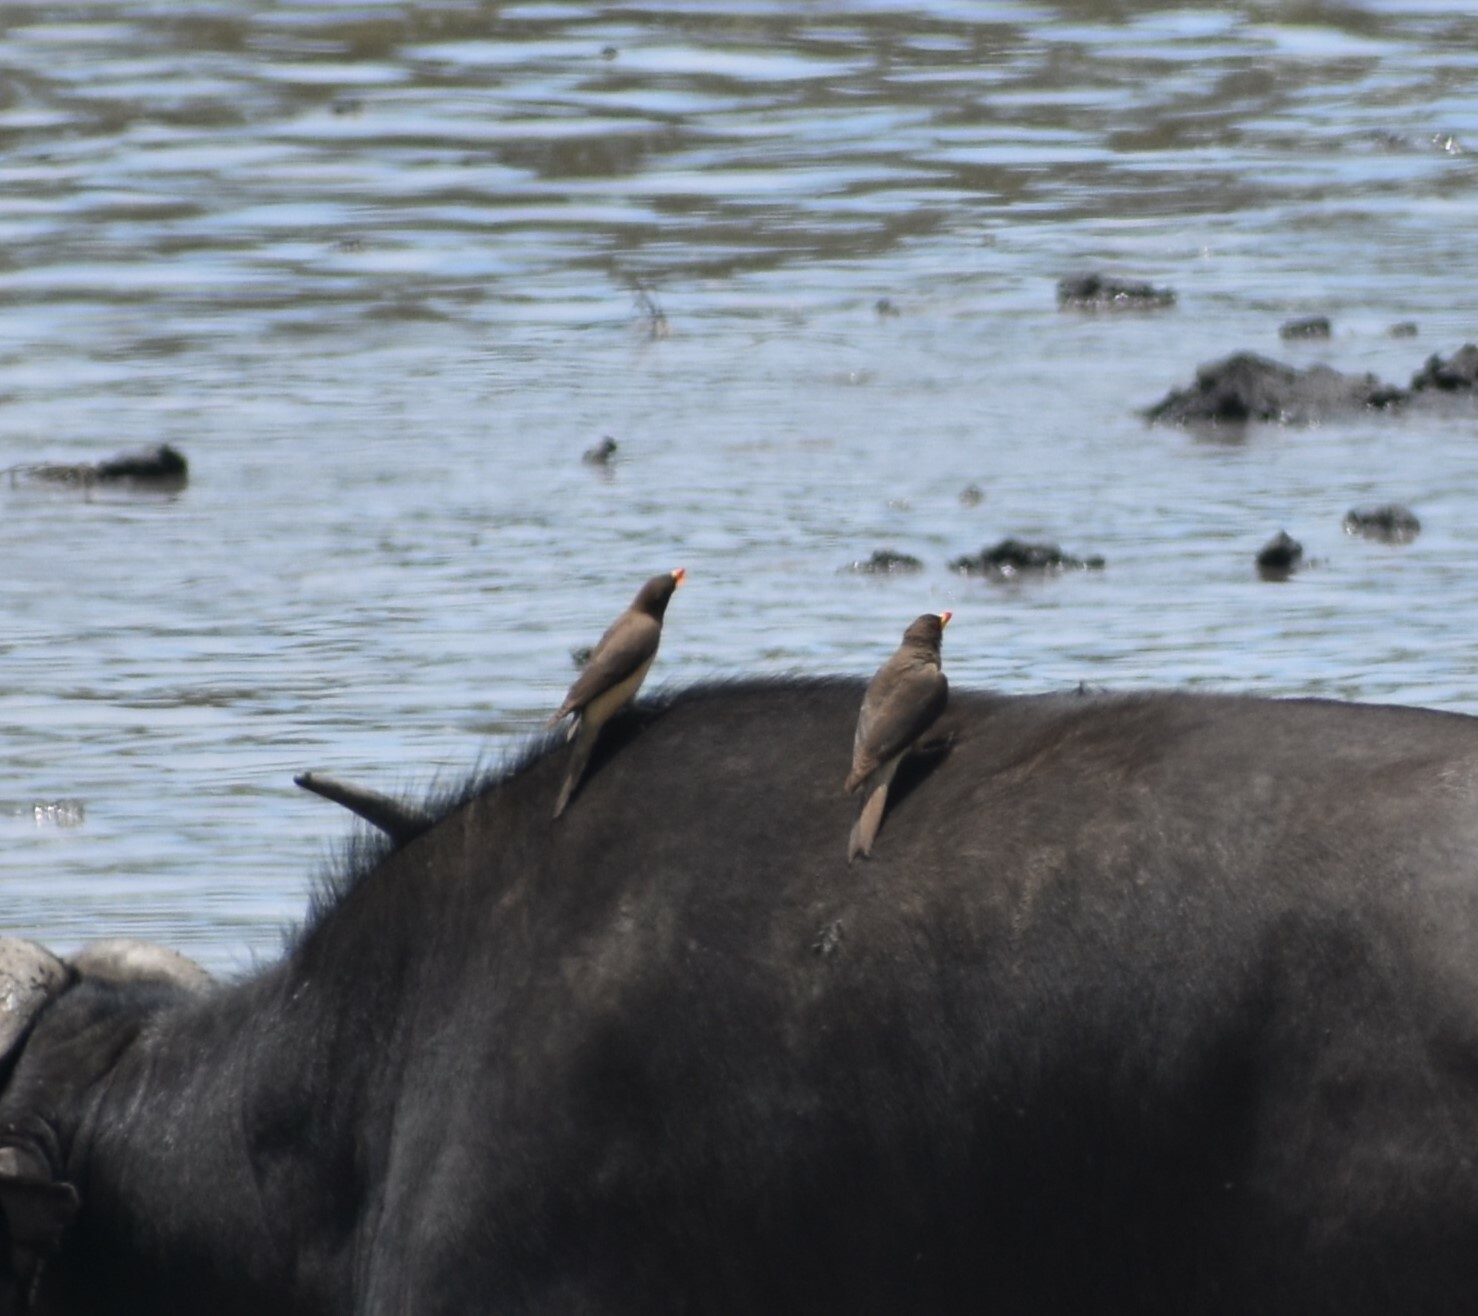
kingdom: Animalia
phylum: Chordata
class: Aves
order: Passeriformes
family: Buphagidae
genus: Buphagus
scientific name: Buphagus africanus
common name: Yellow-billed oxpecker
